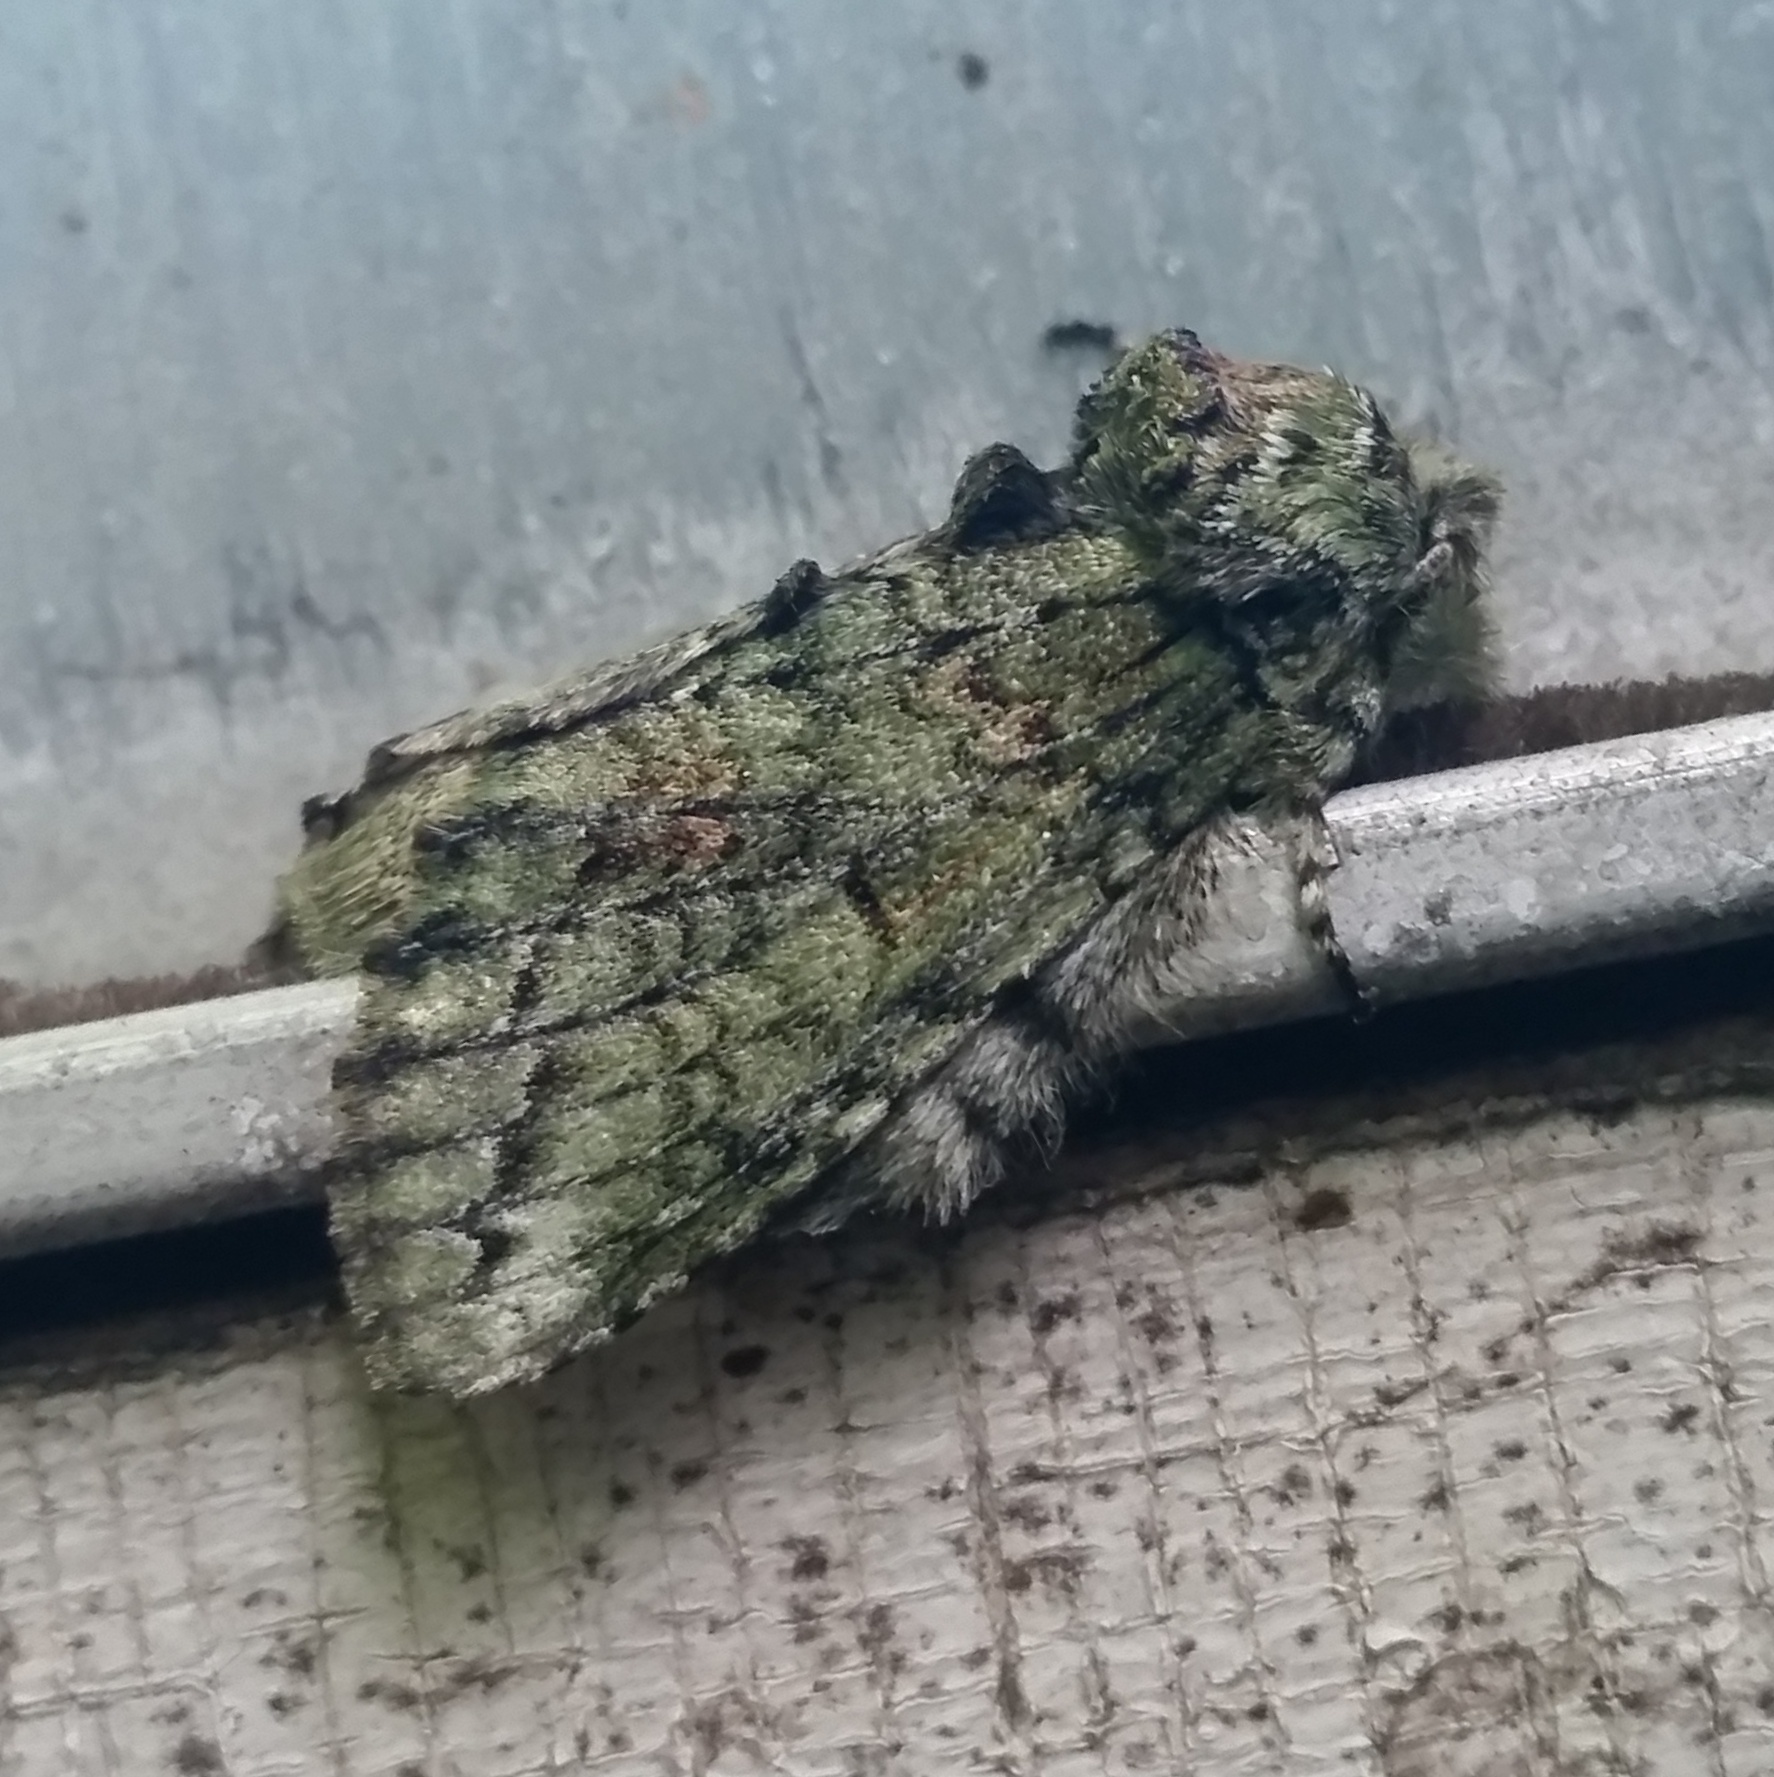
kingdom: Animalia
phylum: Arthropoda
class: Insecta
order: Lepidoptera
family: Notodontidae
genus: Heterocampa
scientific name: Heterocampa
